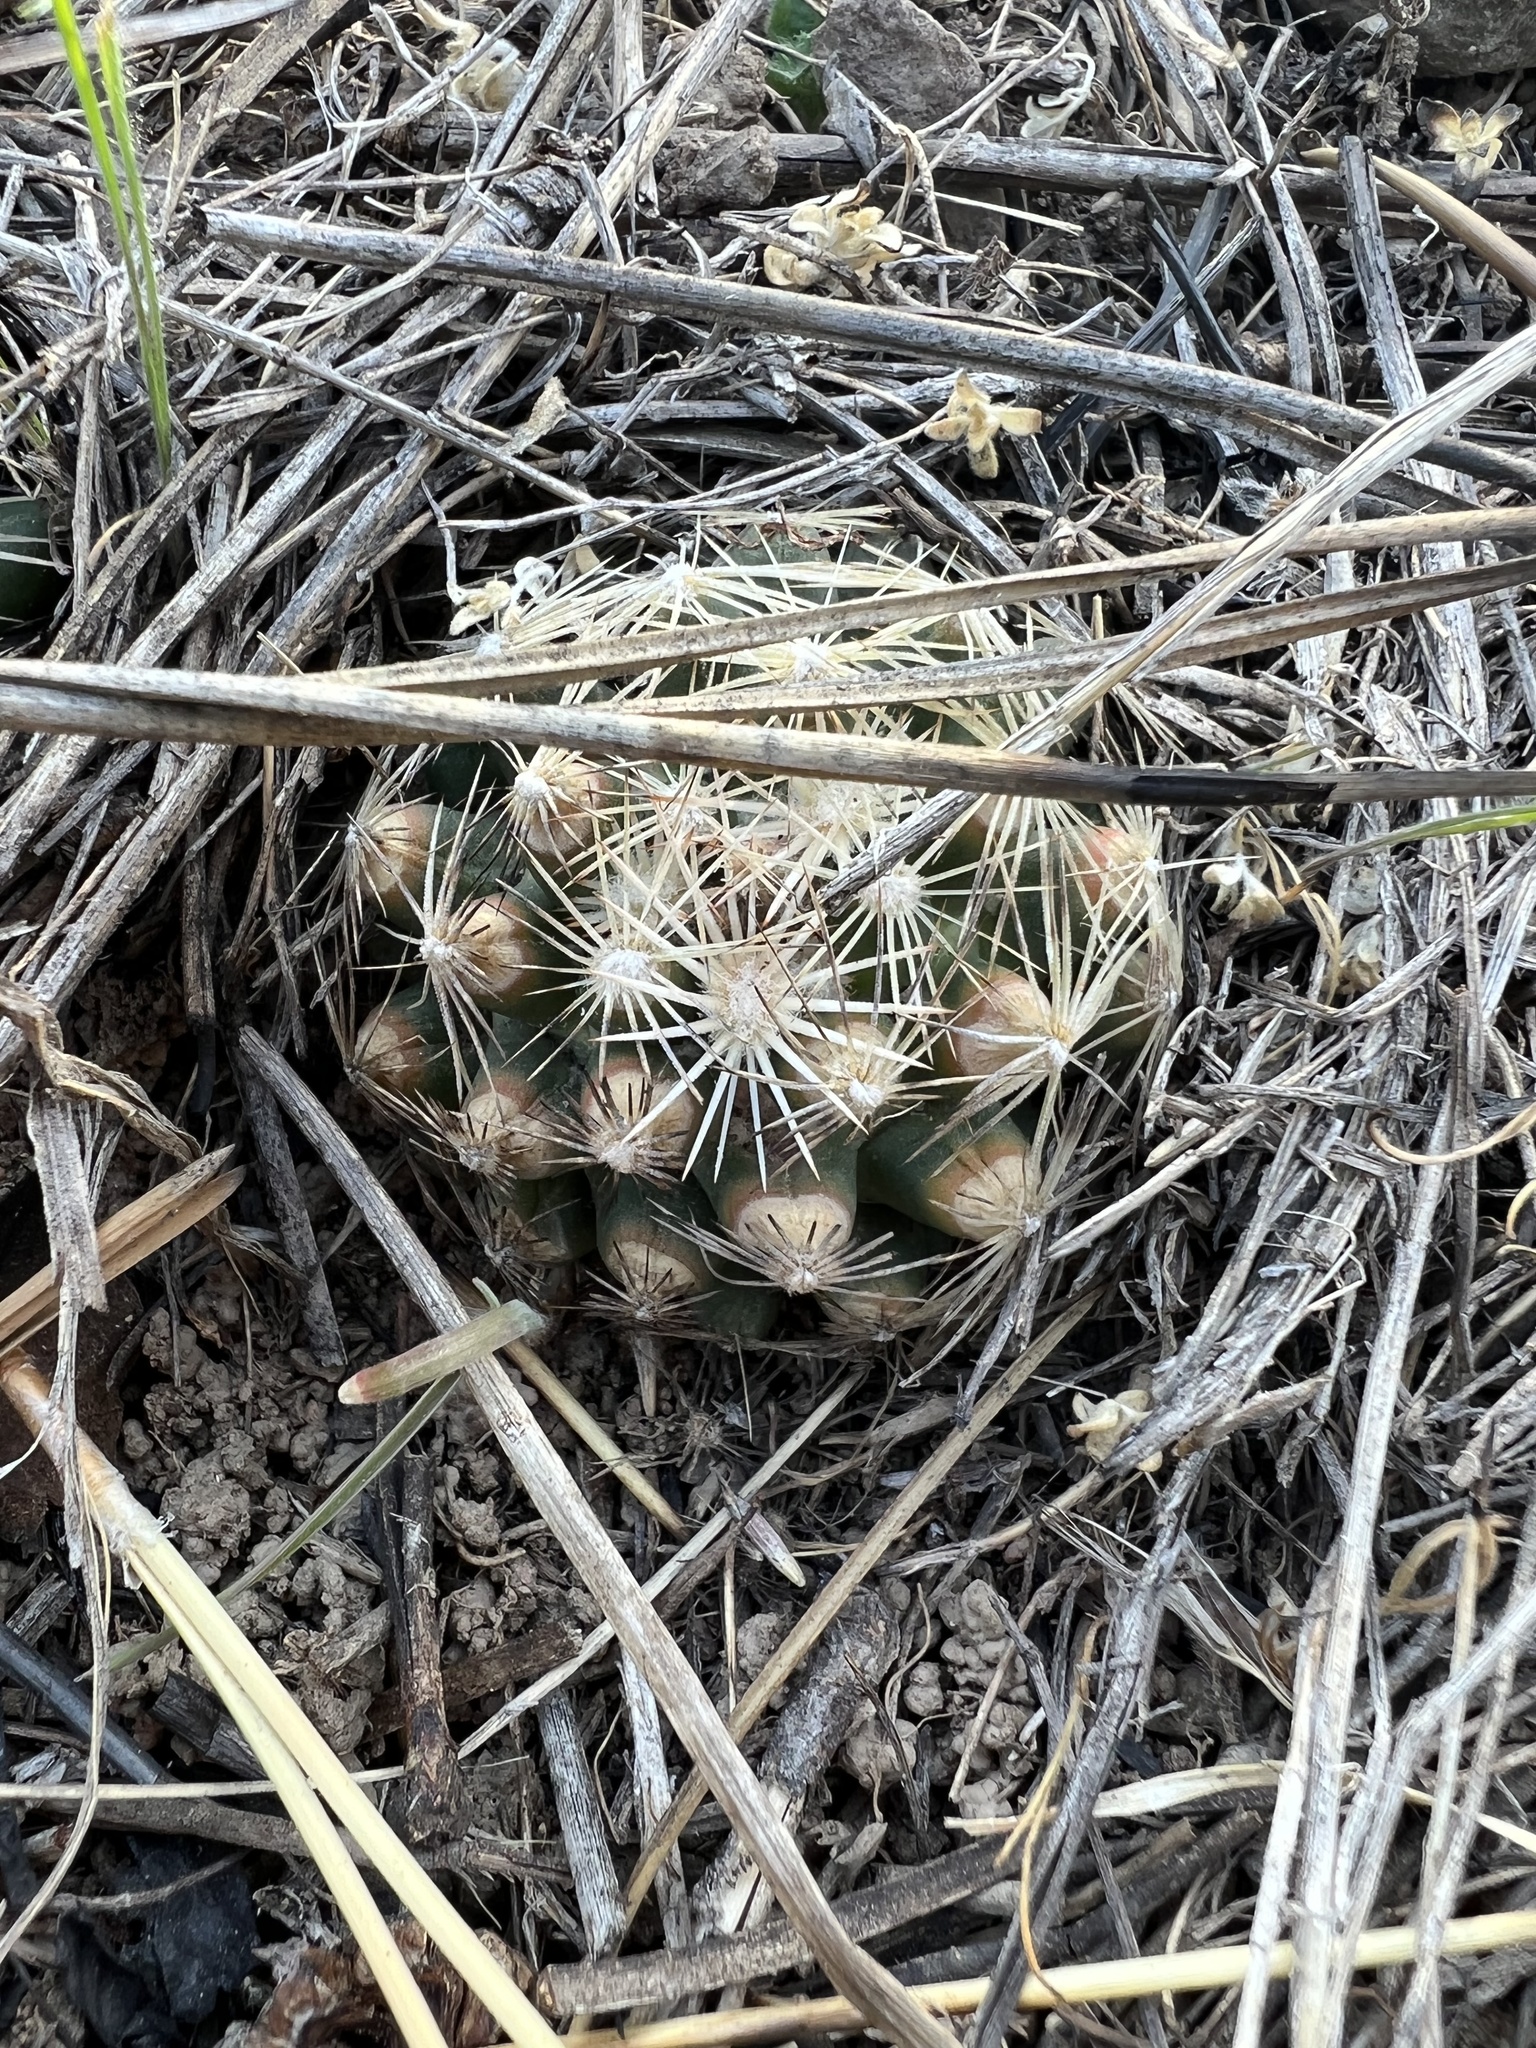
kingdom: Plantae
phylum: Tracheophyta
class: Magnoliopsida
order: Caryophyllales
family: Cactaceae
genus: Pelecyphora
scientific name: Pelecyphora missouriensis
